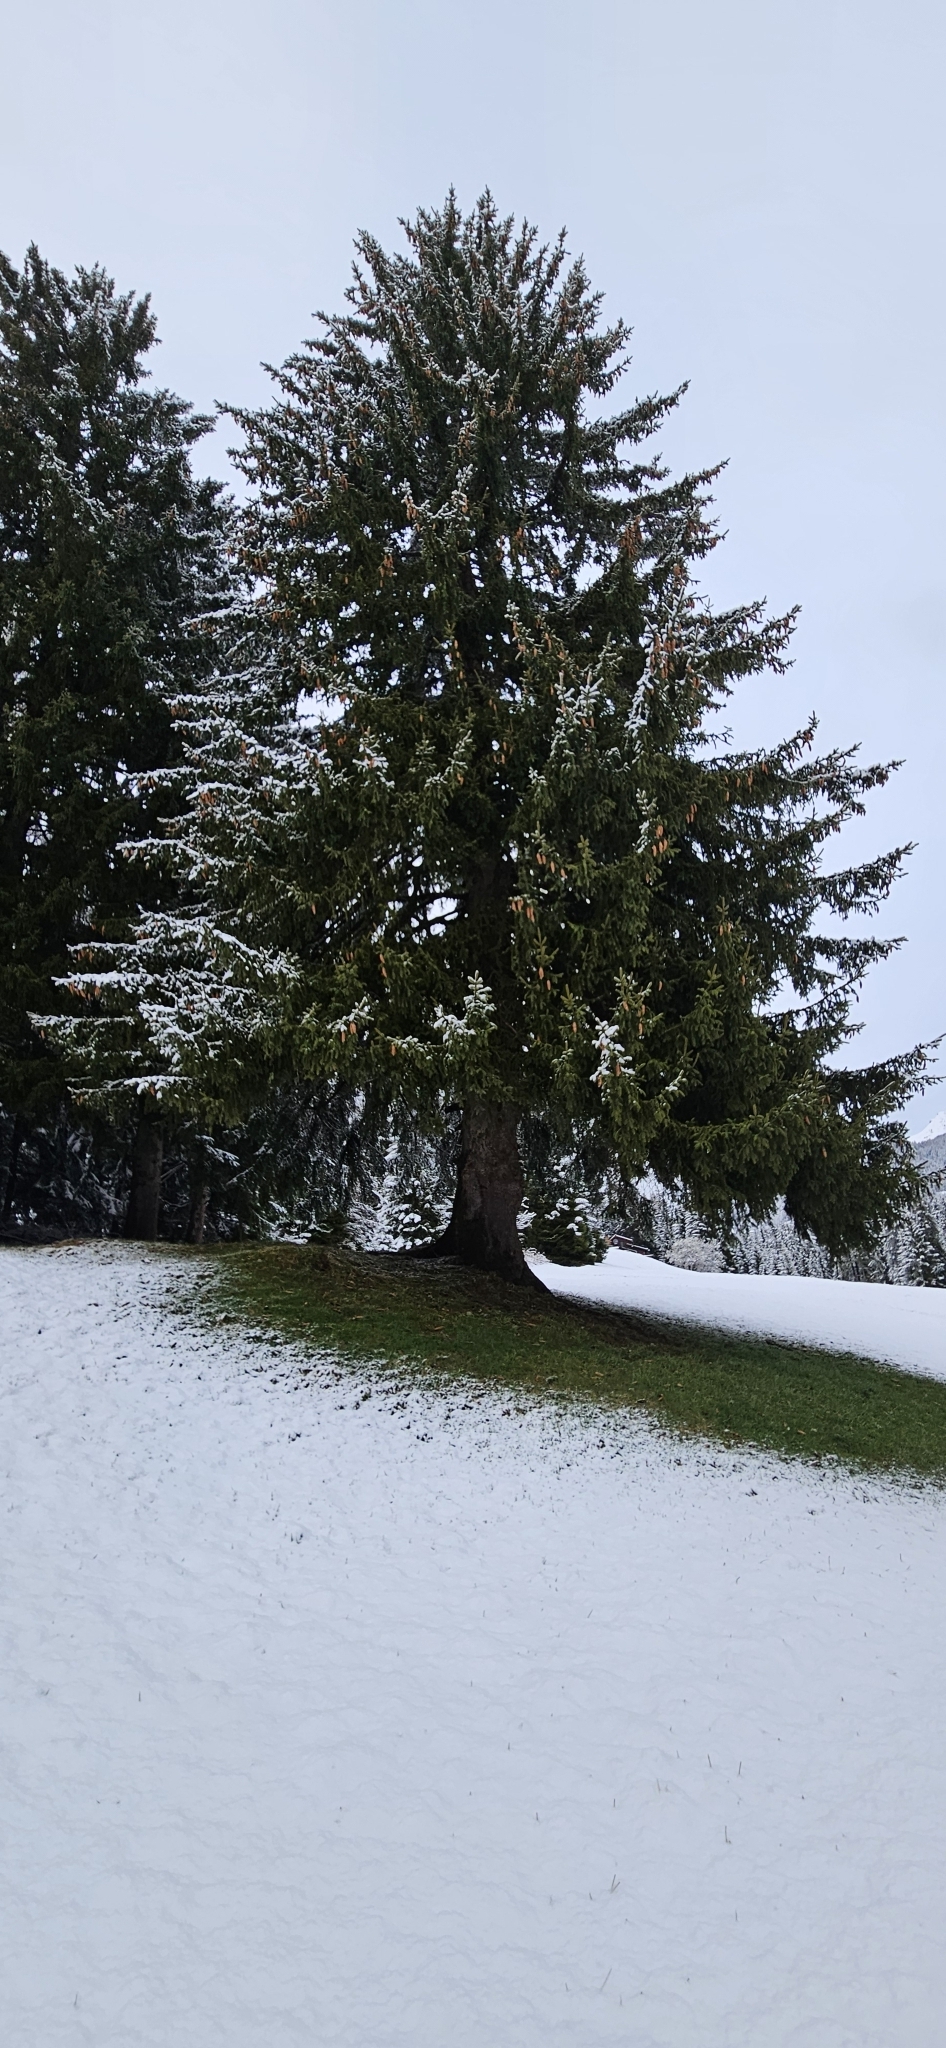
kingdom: Plantae
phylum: Tracheophyta
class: Pinopsida
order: Pinales
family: Pinaceae
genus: Picea
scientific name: Picea abies
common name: Norway spruce
